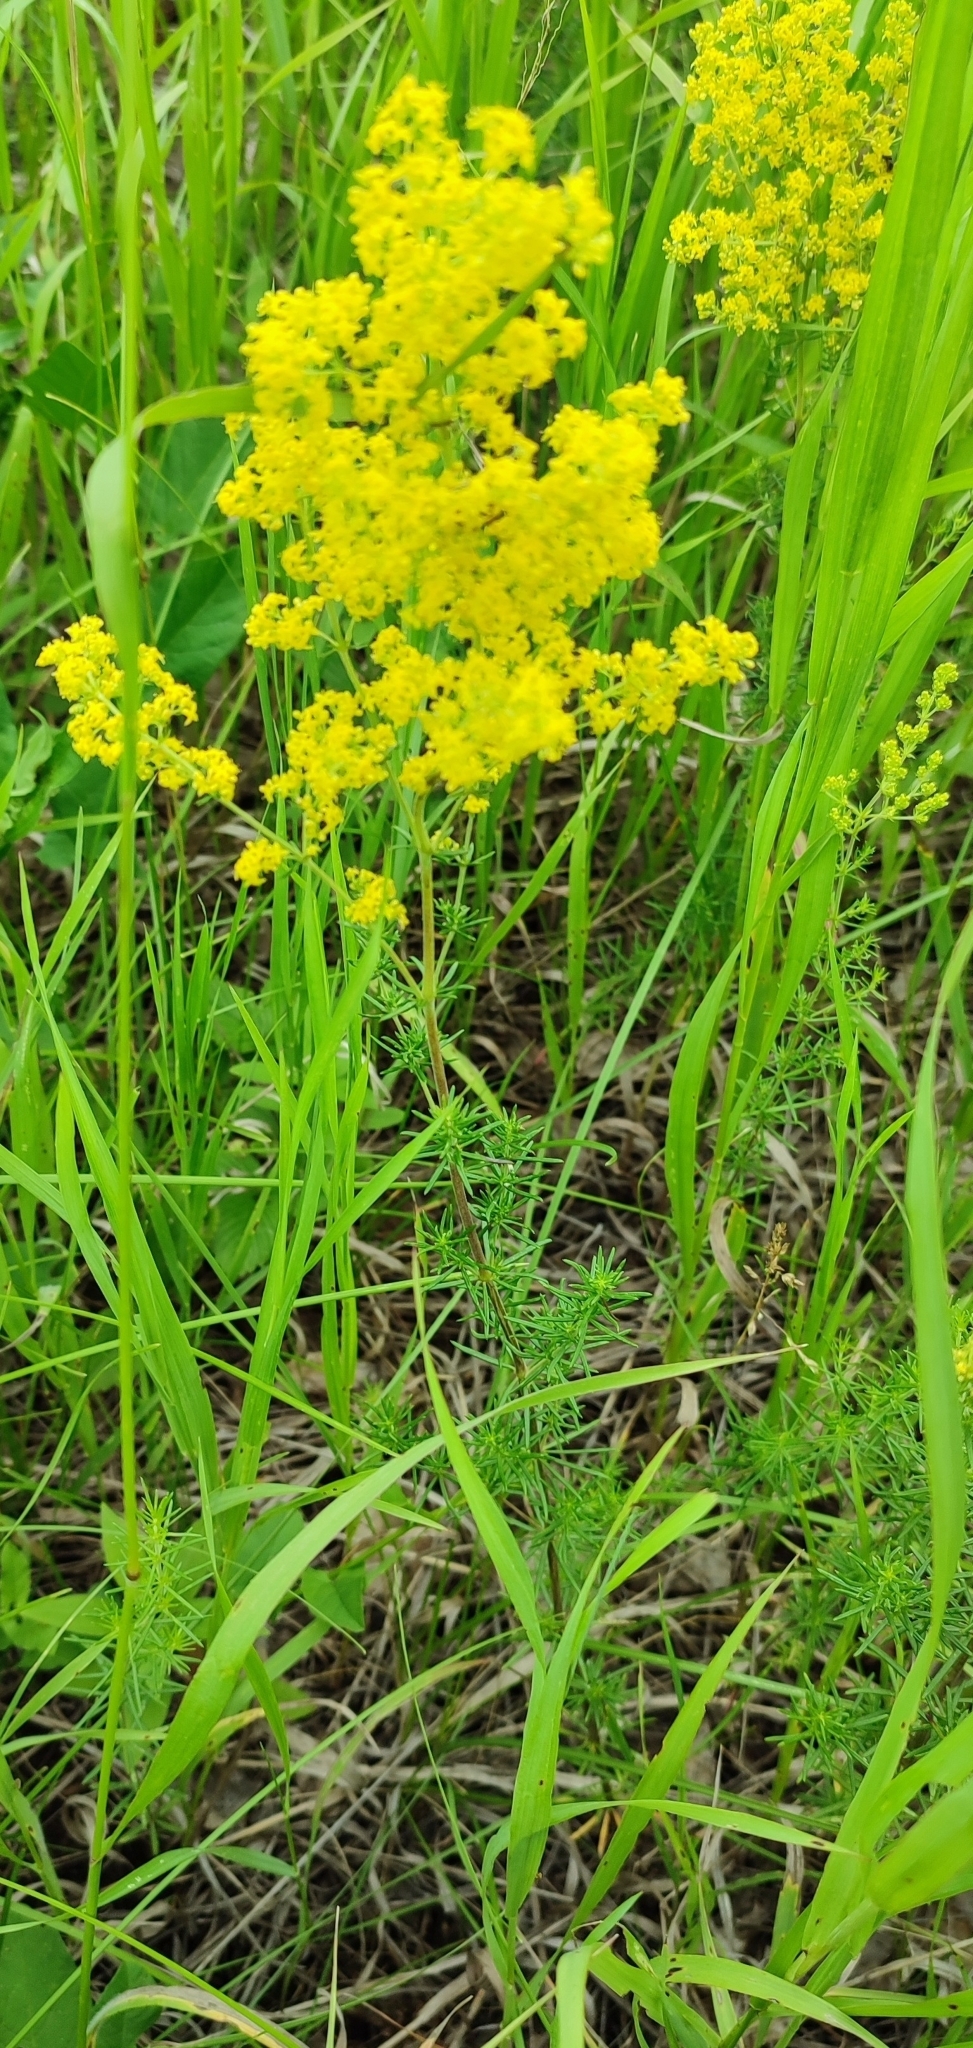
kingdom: Plantae
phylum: Tracheophyta
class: Magnoliopsida
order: Gentianales
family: Rubiaceae
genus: Galium
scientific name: Galium verum
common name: Lady's bedstraw
